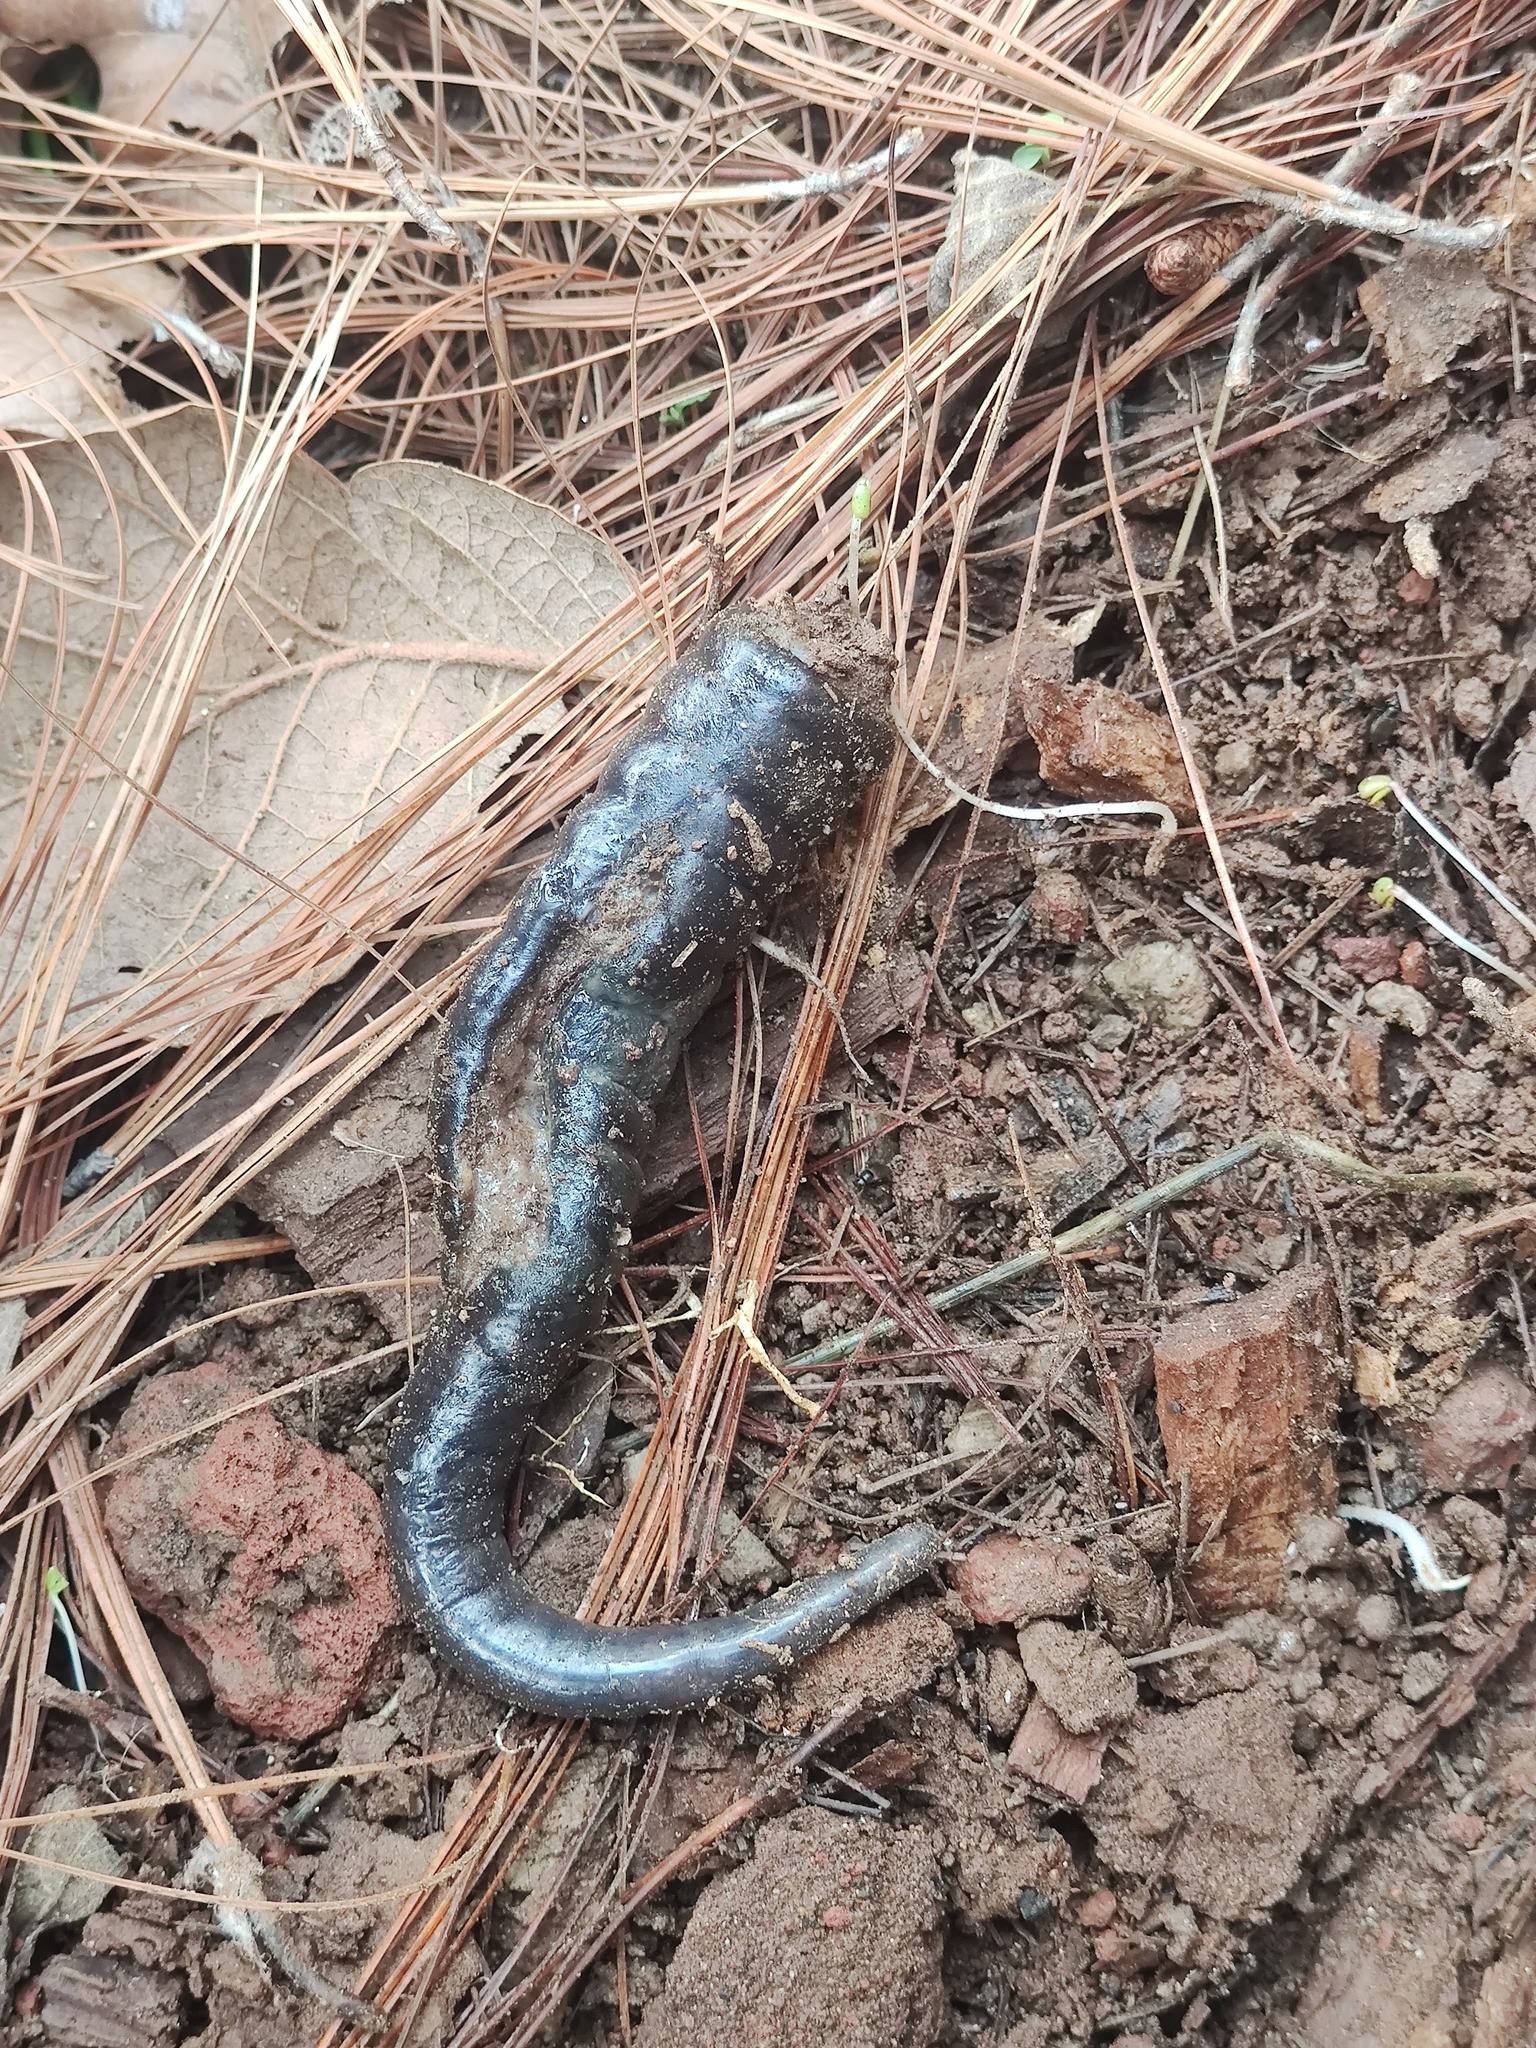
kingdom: Animalia
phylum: Chordata
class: Amphibia
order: Caudata
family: Plethodontidae
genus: Isthmura
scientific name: Isthmura bellii
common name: Bell's false brook salamander
